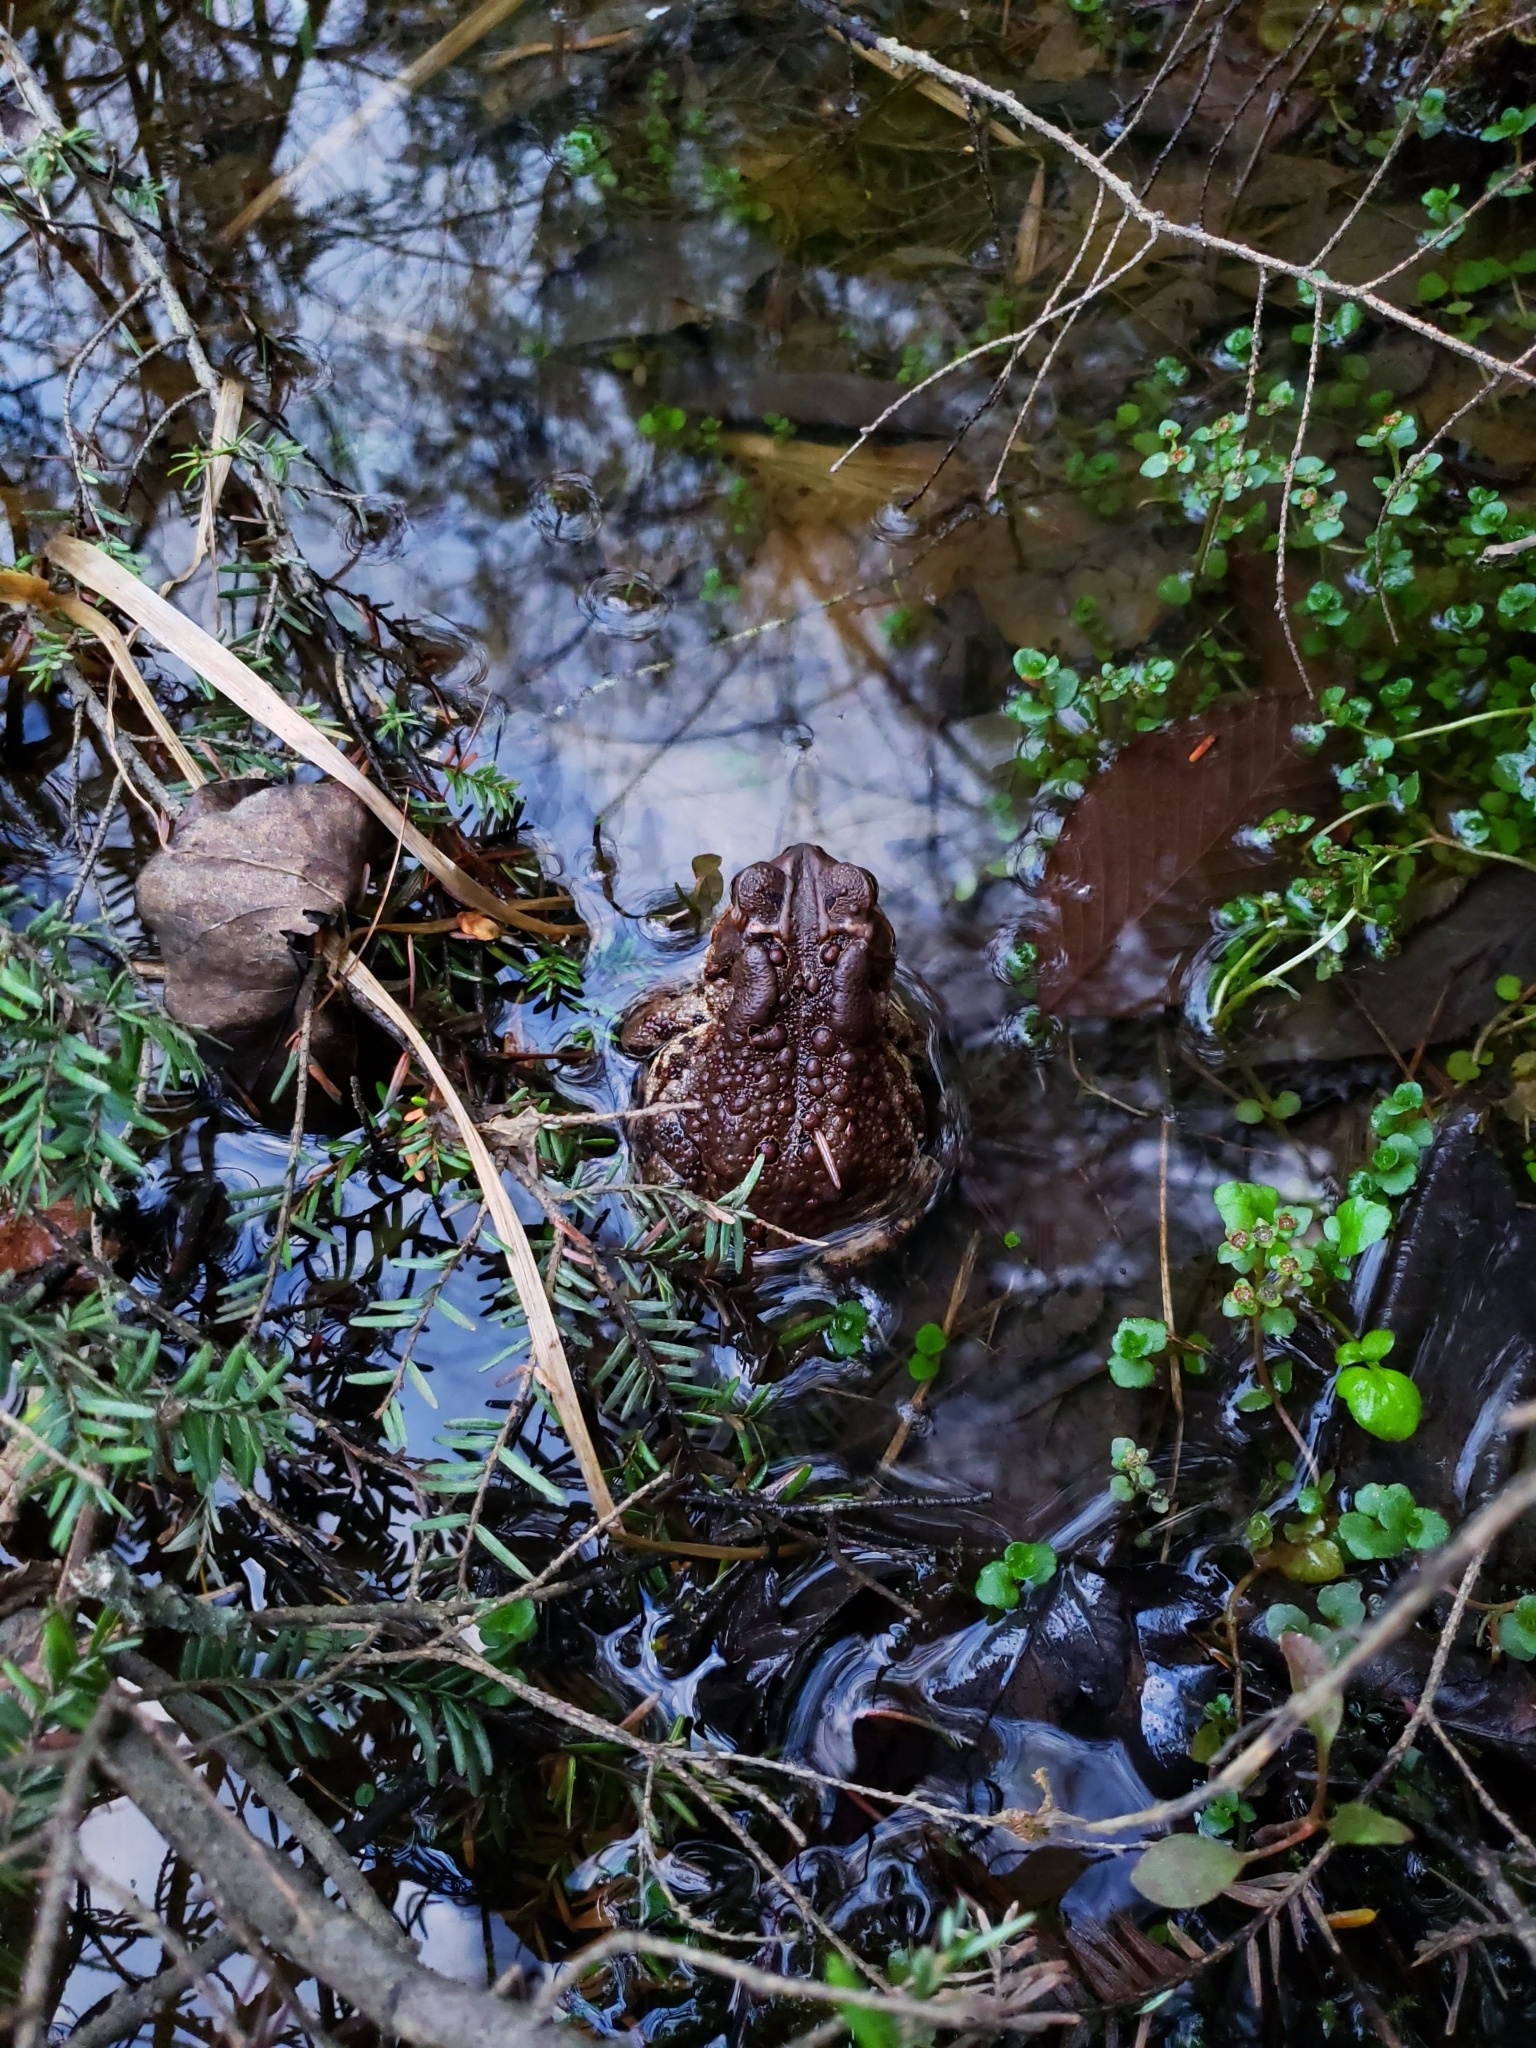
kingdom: Animalia
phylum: Chordata
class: Amphibia
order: Anura
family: Bufonidae
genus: Anaxyrus
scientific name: Anaxyrus americanus
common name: American toad
